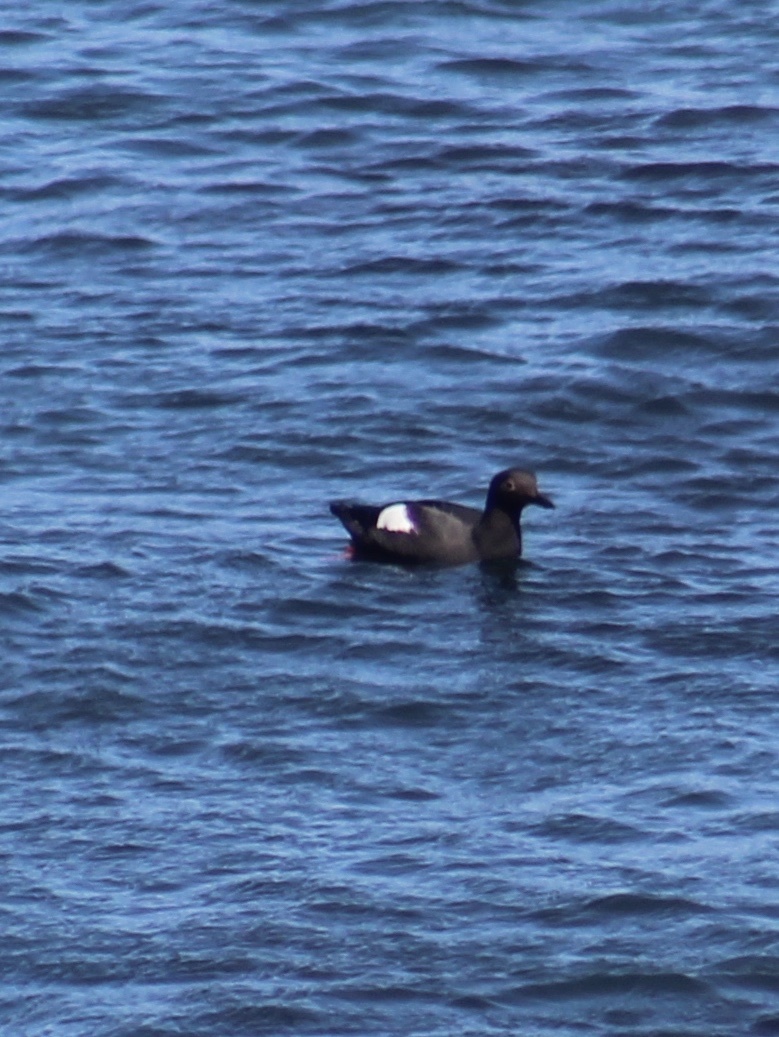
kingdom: Animalia
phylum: Chordata
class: Aves
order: Charadriiformes
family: Alcidae
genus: Cepphus
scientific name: Cepphus columba
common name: Pigeon guillemot
